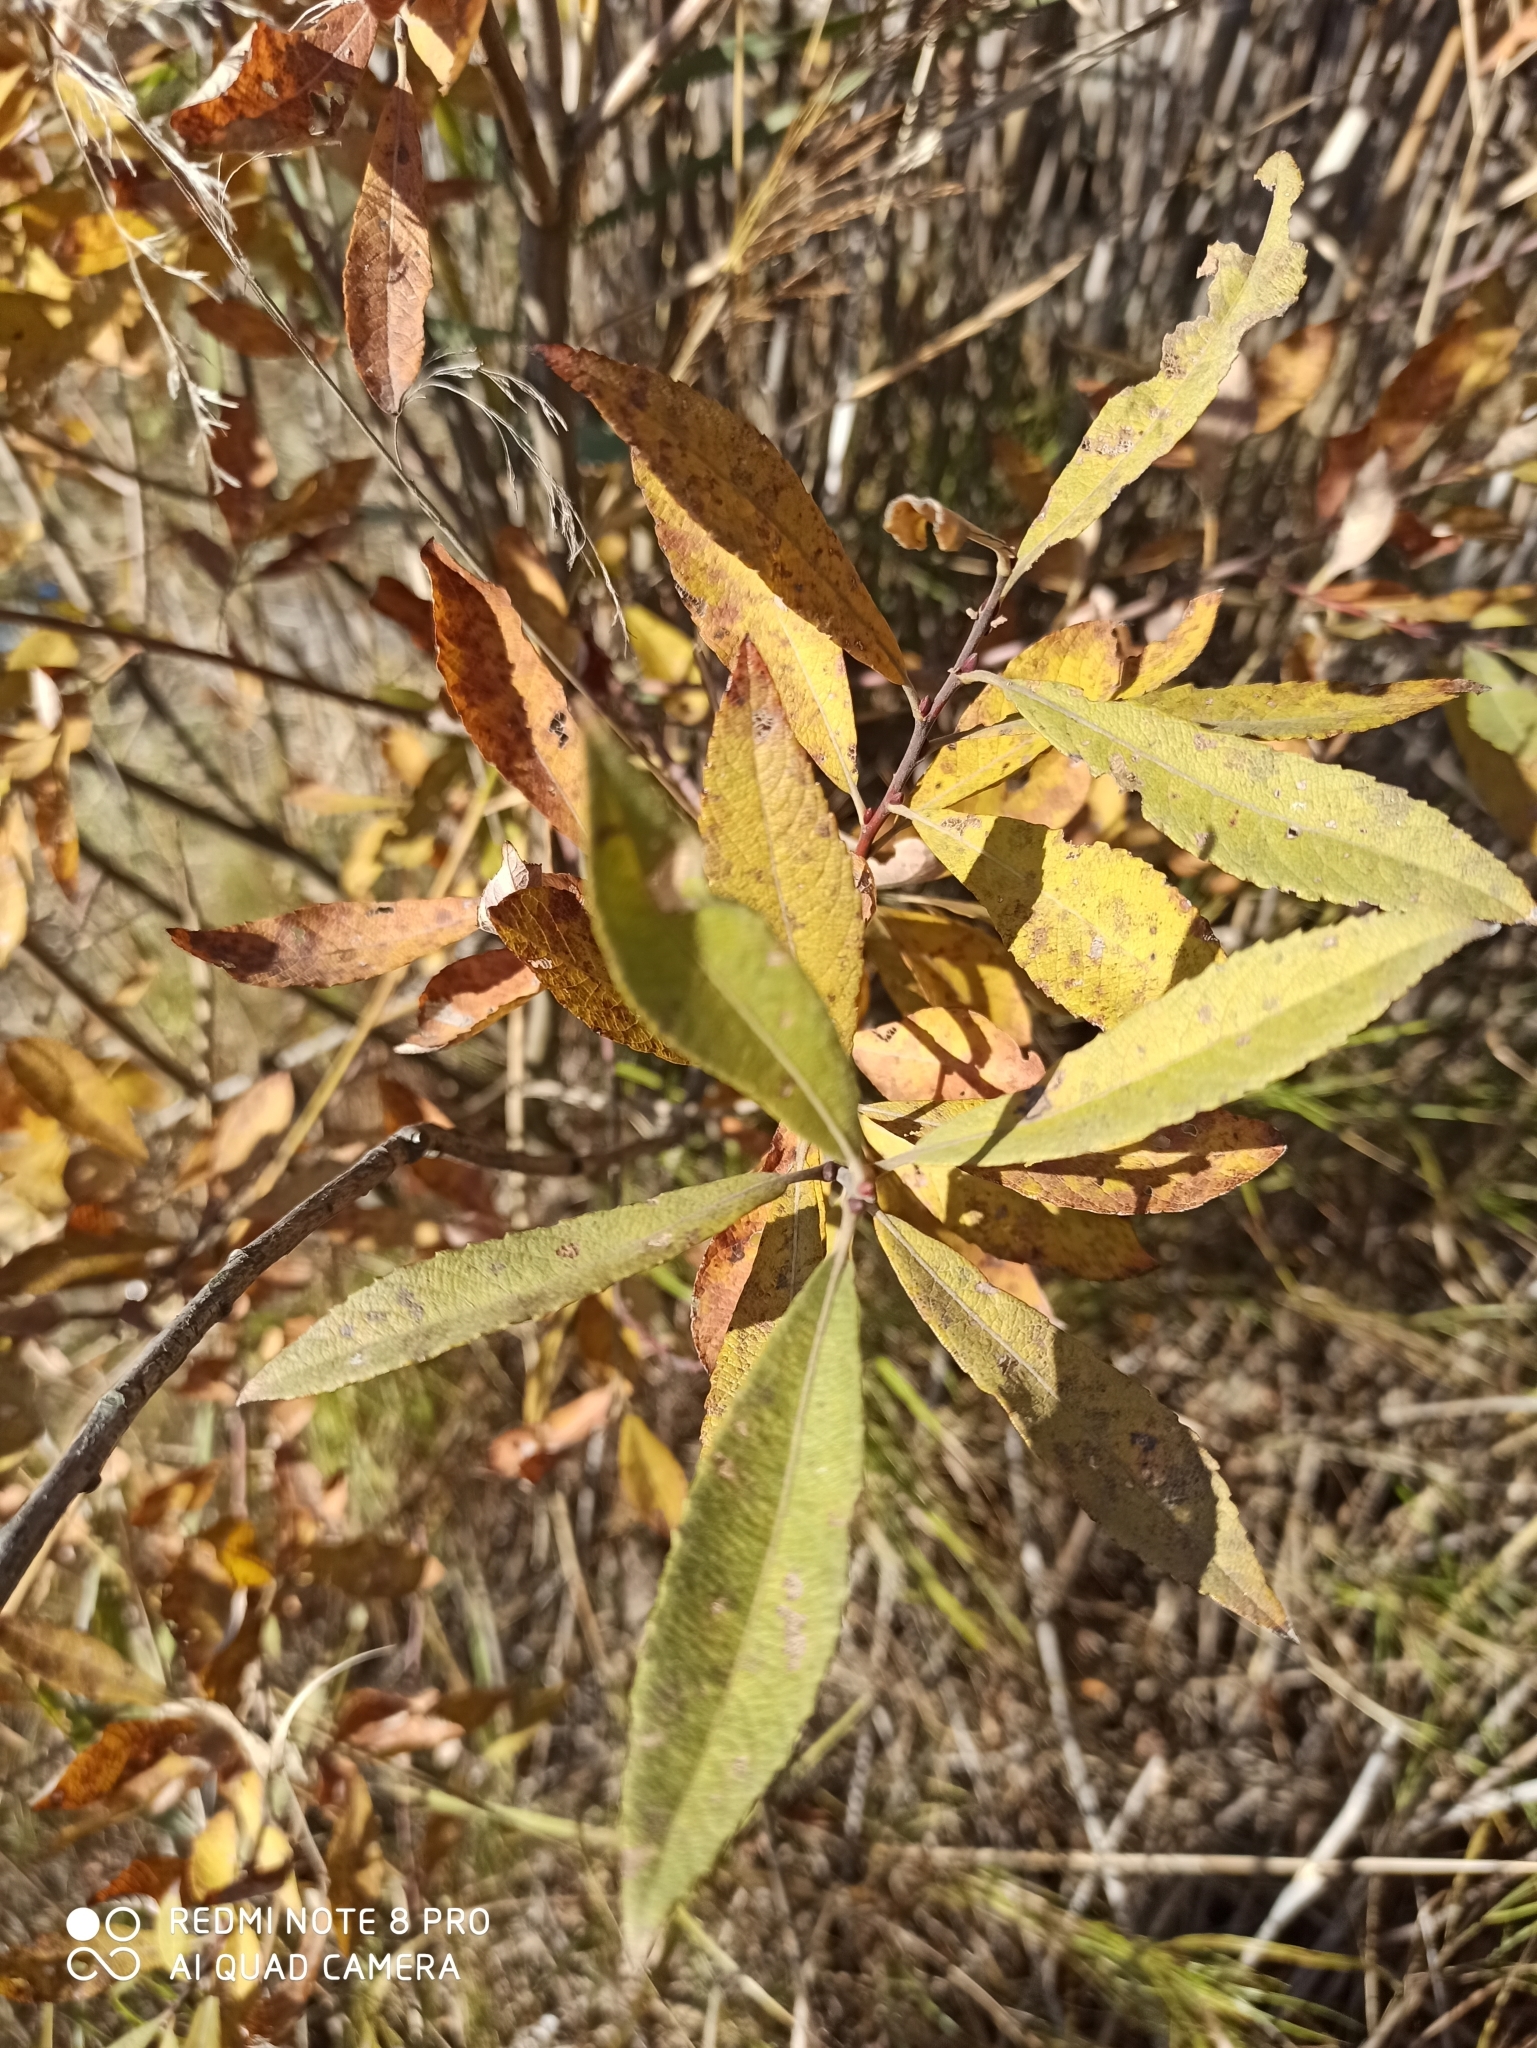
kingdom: Plantae
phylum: Tracheophyta
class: Magnoliopsida
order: Malpighiales
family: Salicaceae
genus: Salix
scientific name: Salix cinerea
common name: Common sallow
